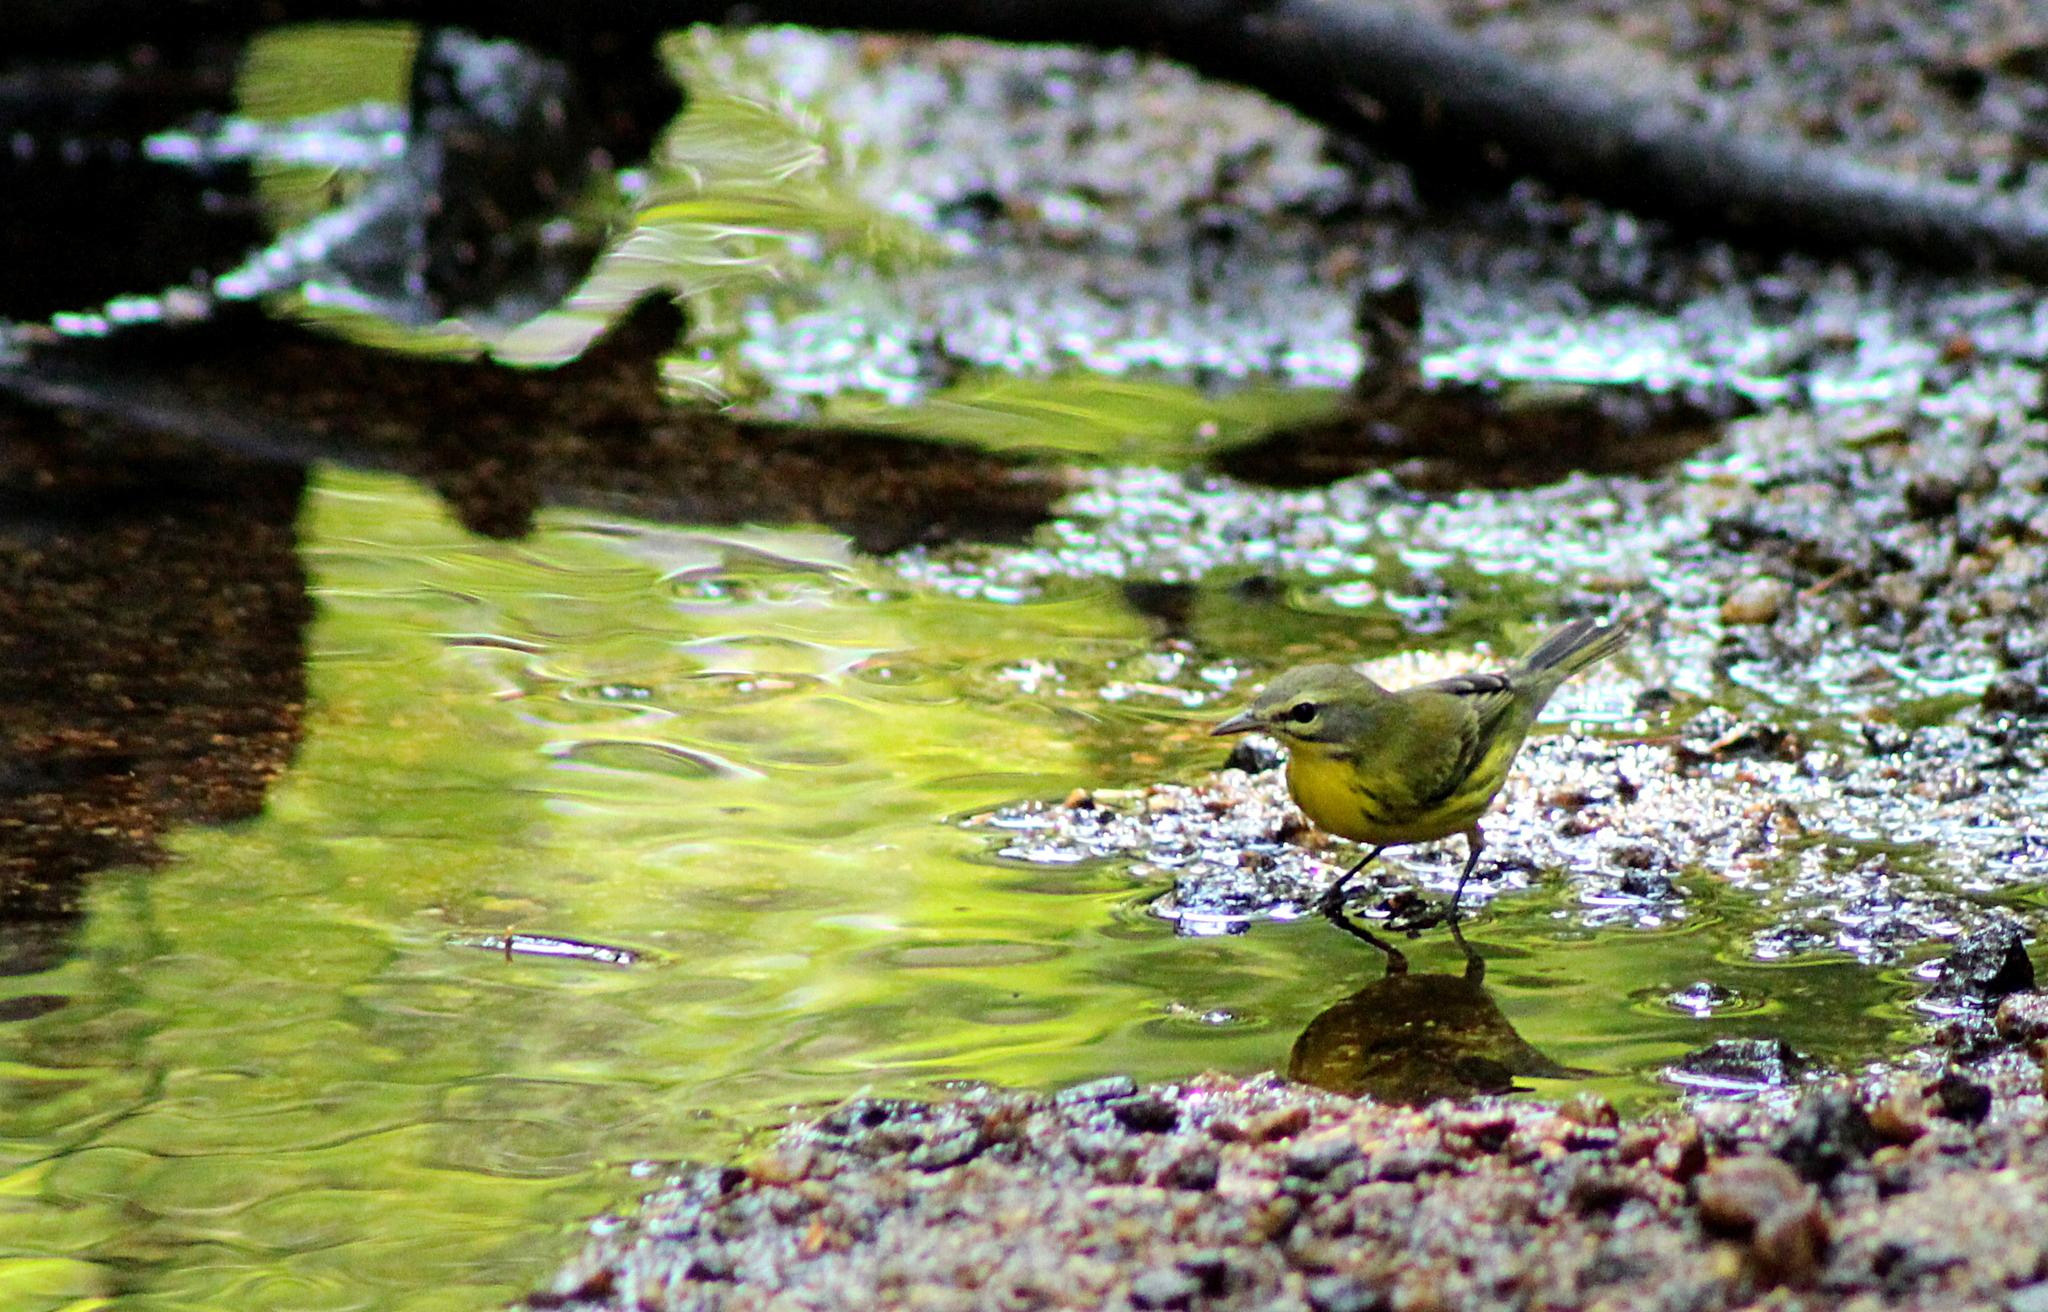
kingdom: Animalia
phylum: Chordata
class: Aves
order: Passeriformes
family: Parulidae
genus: Setophaga
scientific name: Setophaga discolor
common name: Prairie warbler
